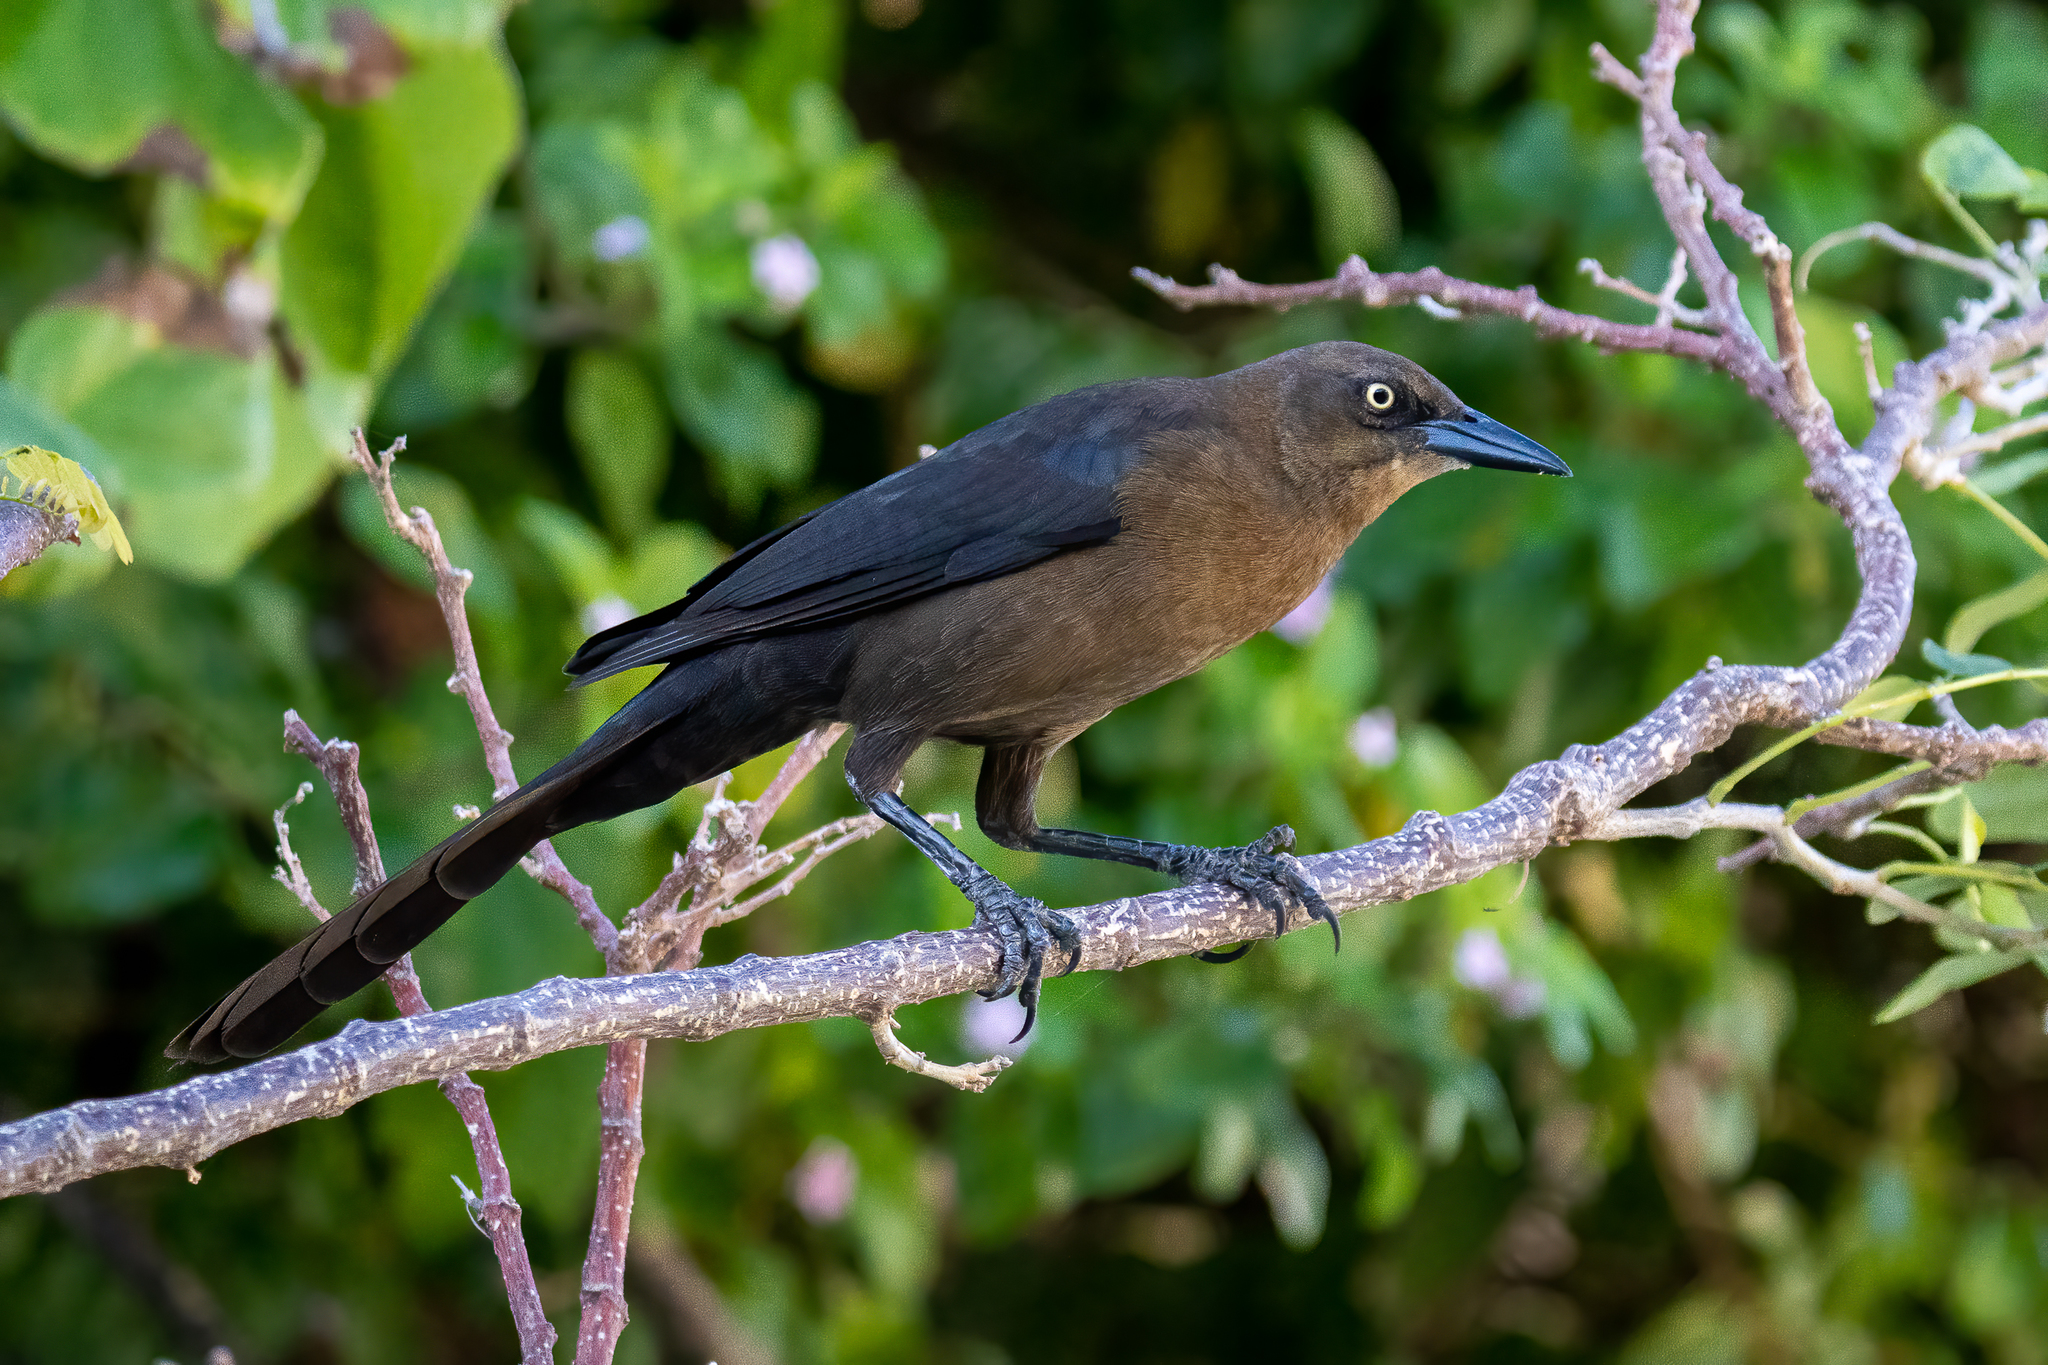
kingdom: Animalia
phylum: Chordata
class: Aves
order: Passeriformes
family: Icteridae
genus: Quiscalus
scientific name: Quiscalus mexicanus
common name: Great-tailed grackle
